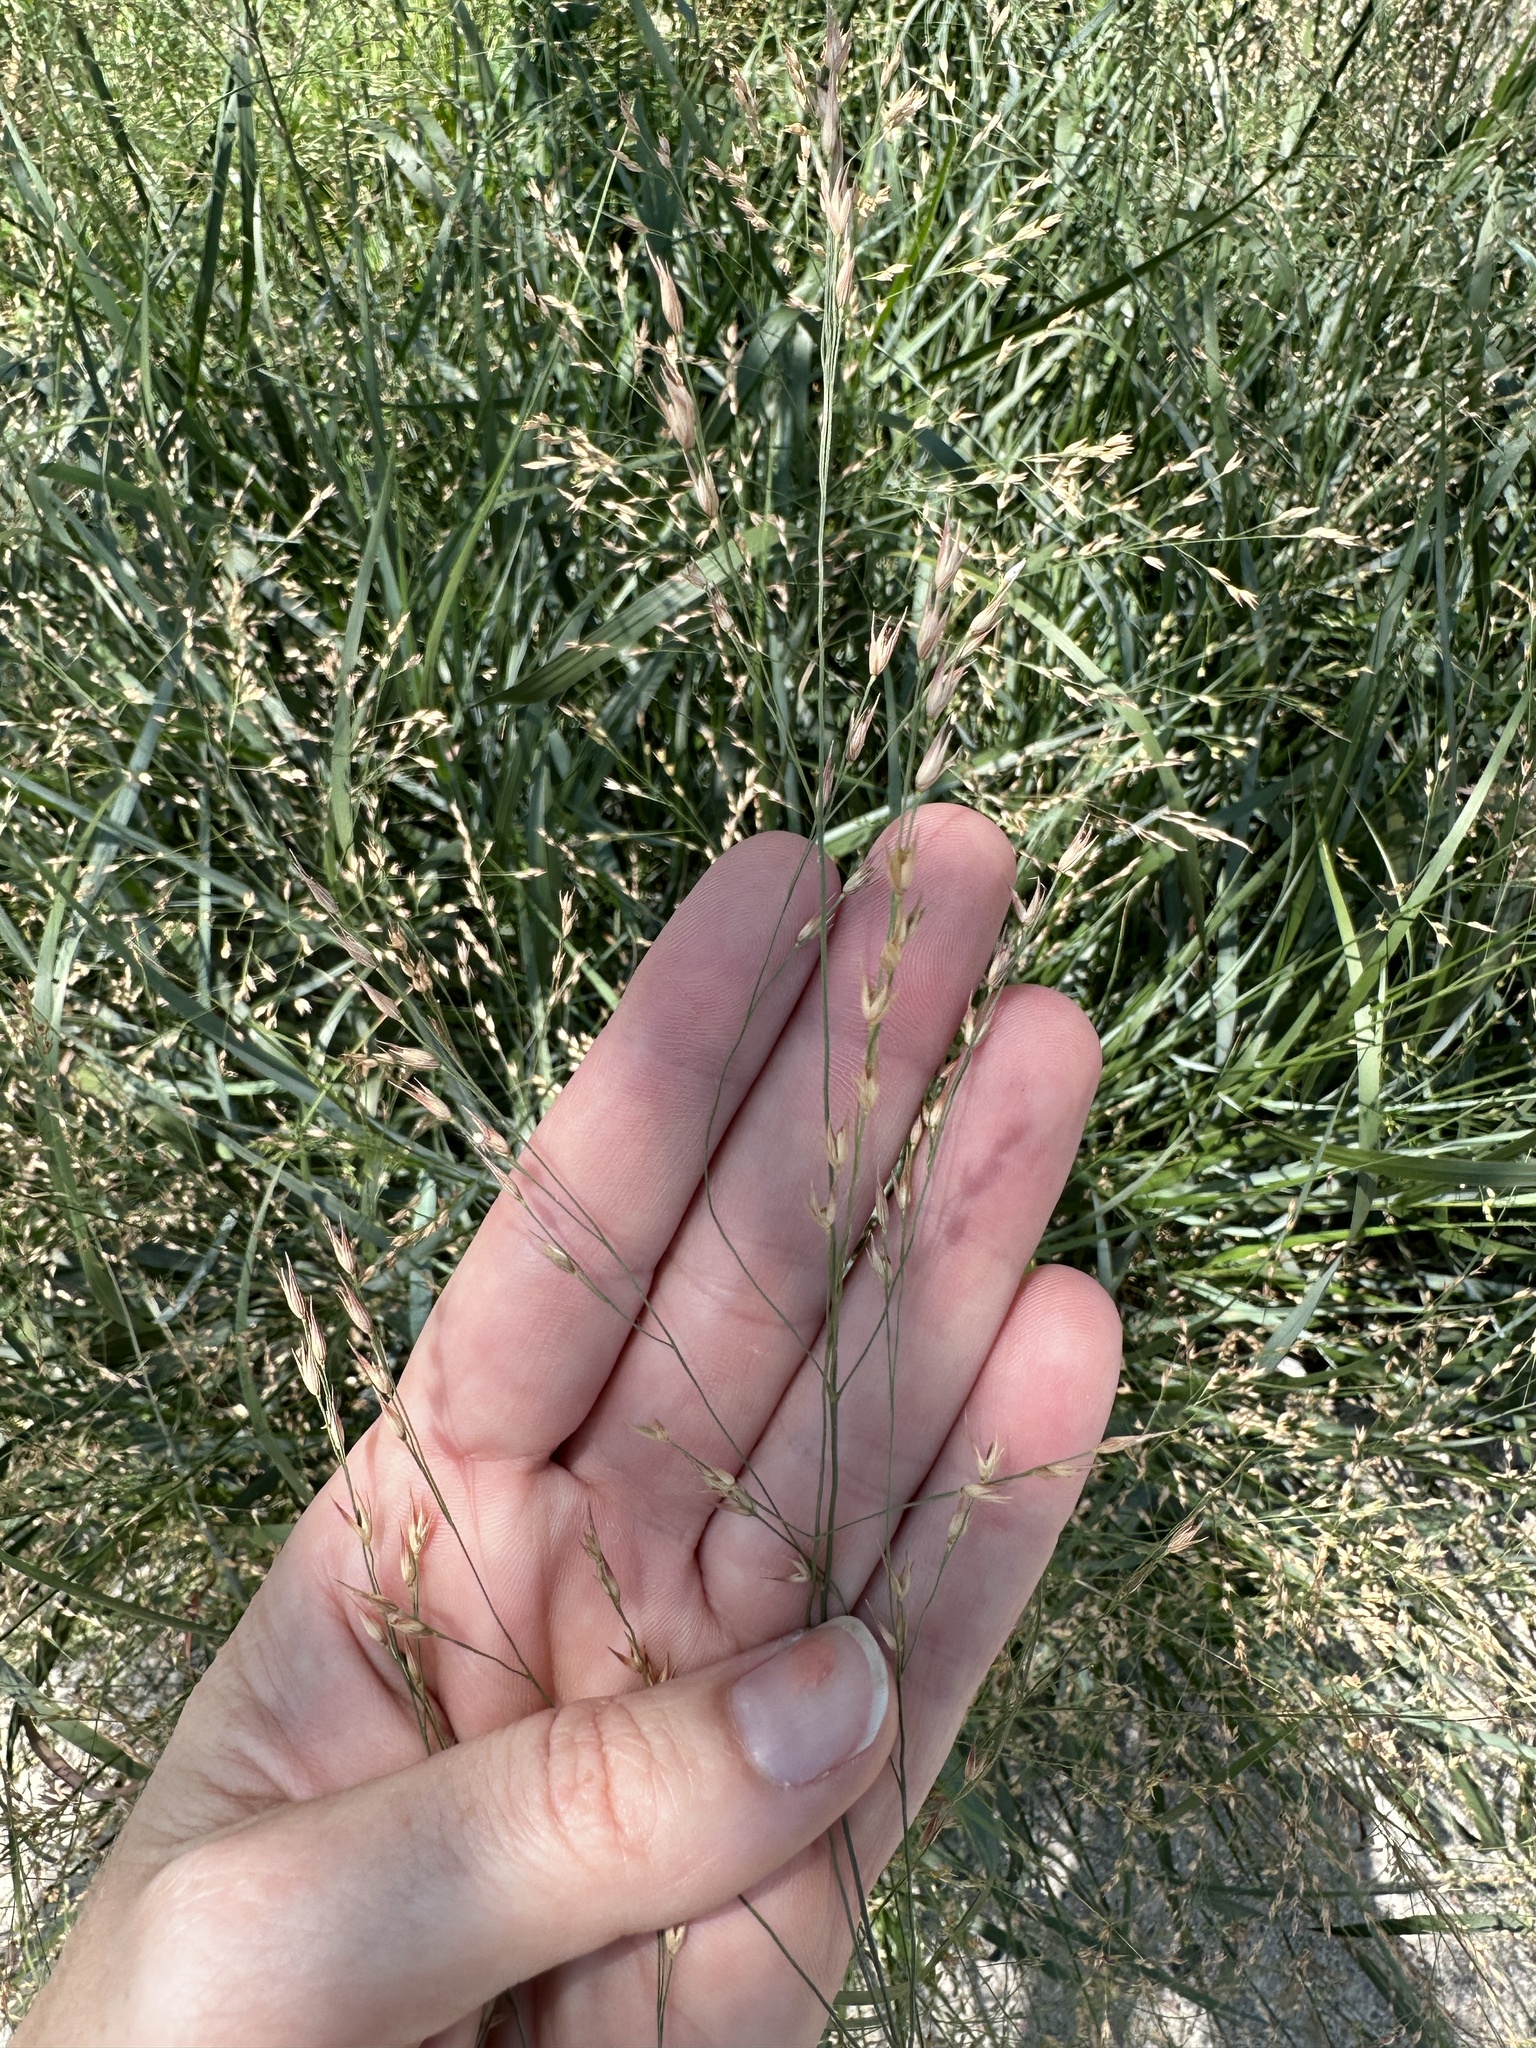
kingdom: Plantae
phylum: Tracheophyta
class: Liliopsida
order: Poales
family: Poaceae
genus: Panicum
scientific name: Panicum virgatum
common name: Switchgrass
